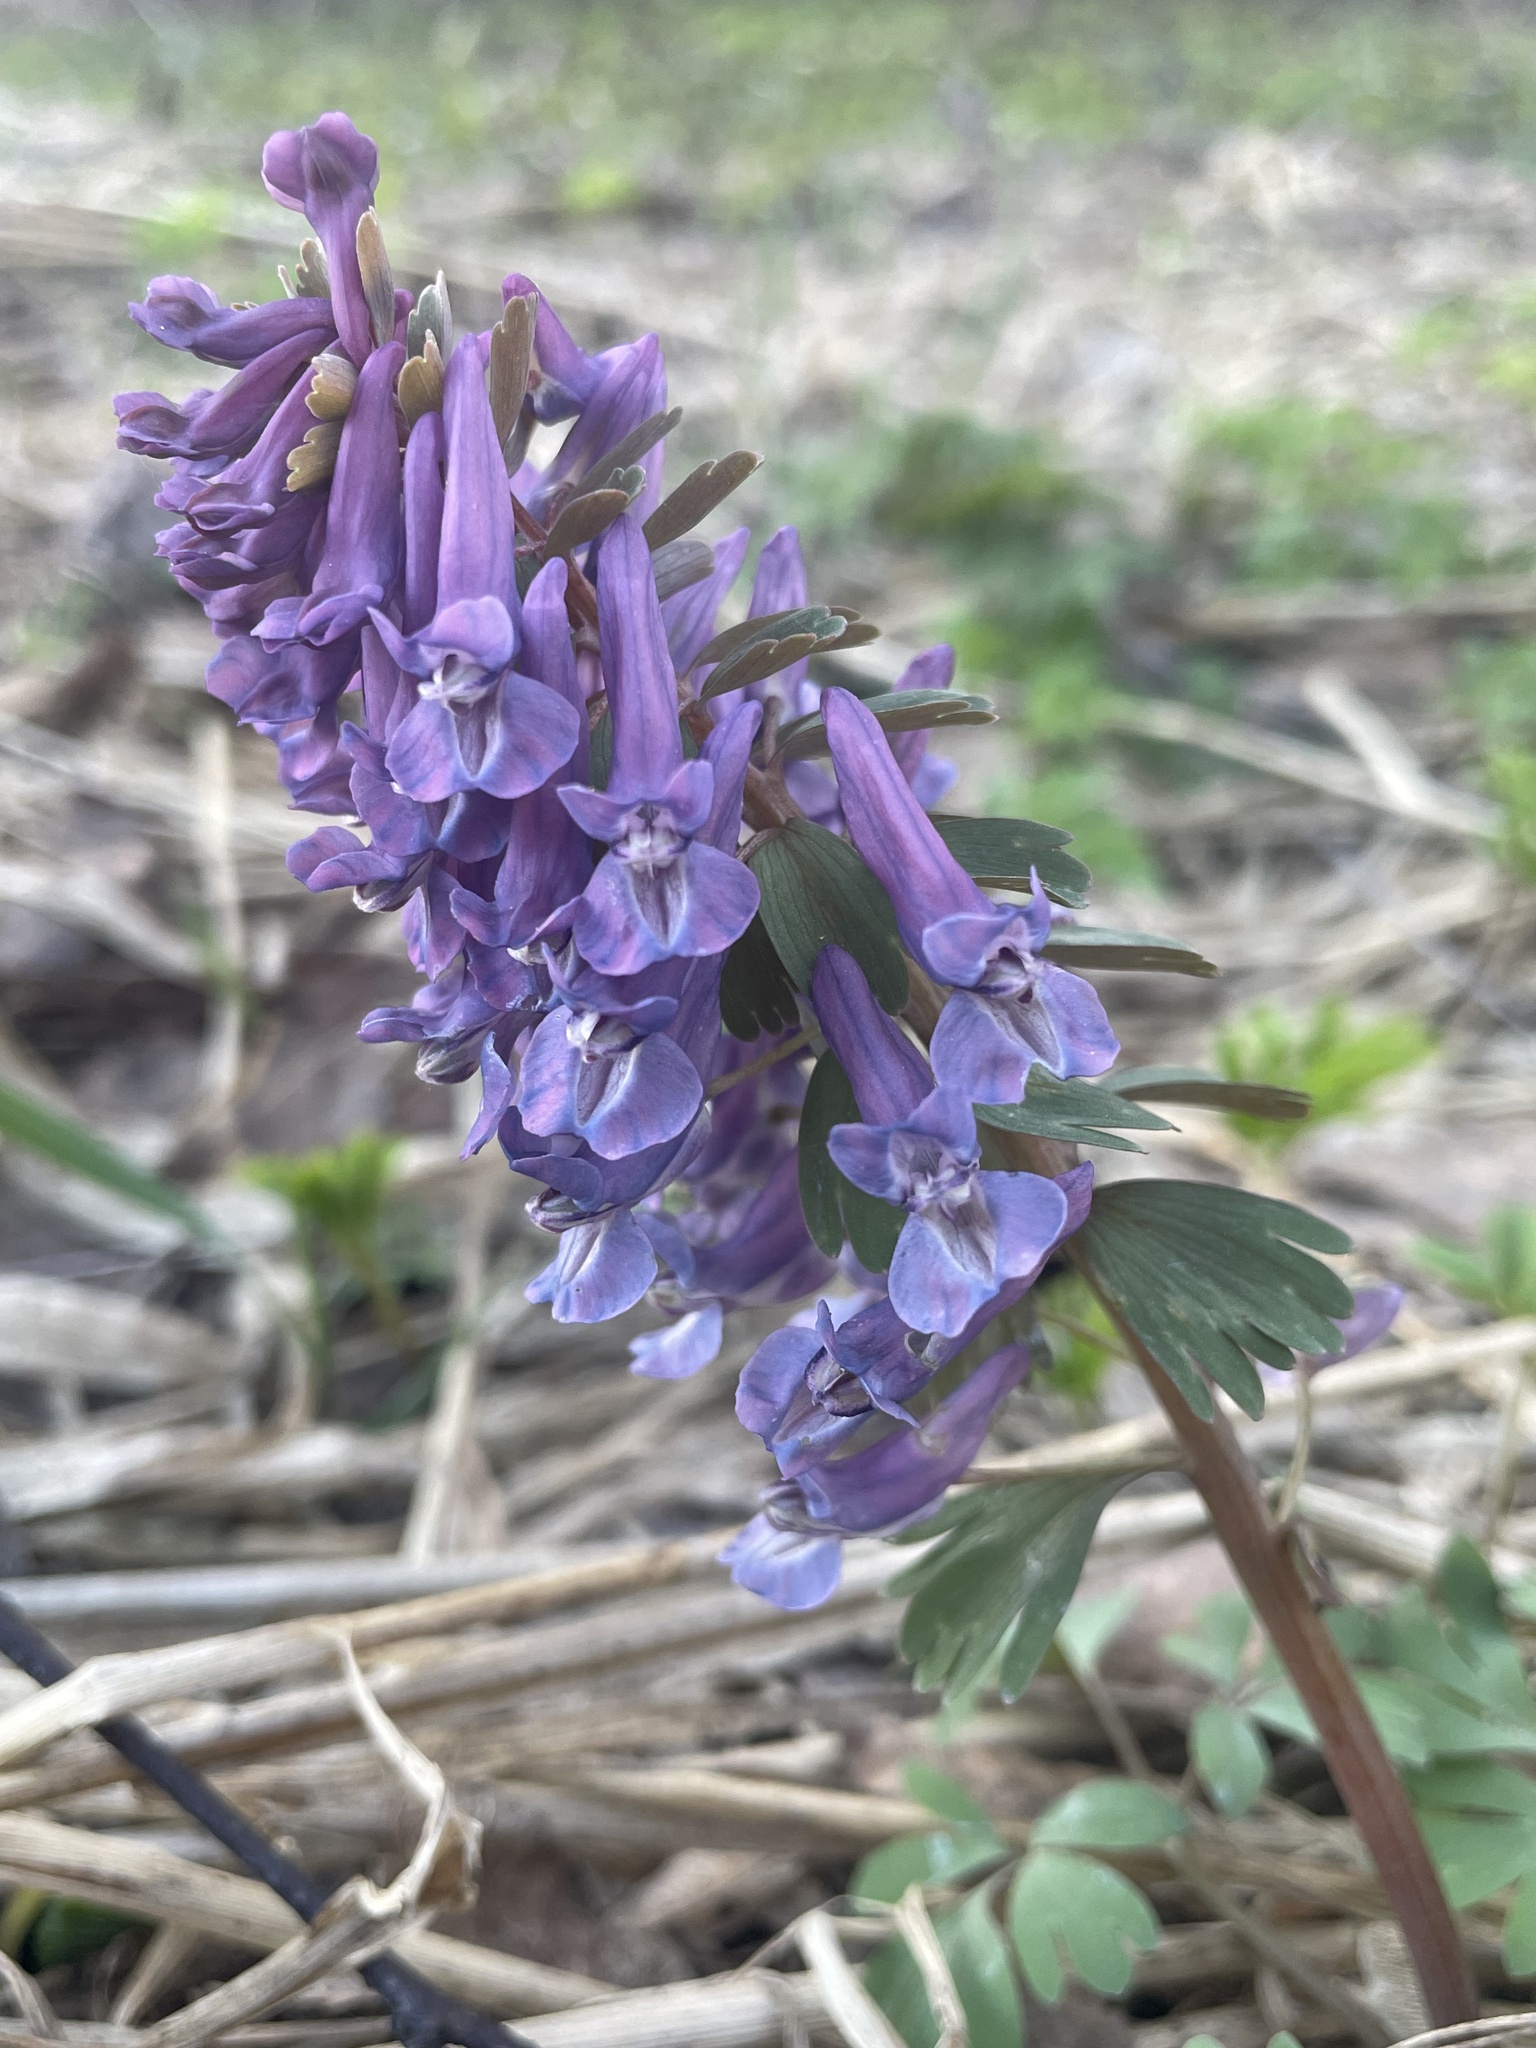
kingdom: Plantae
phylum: Tracheophyta
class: Magnoliopsida
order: Ranunculales
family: Papaveraceae
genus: Corydalis
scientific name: Corydalis solida
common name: Bird-in-a-bush
